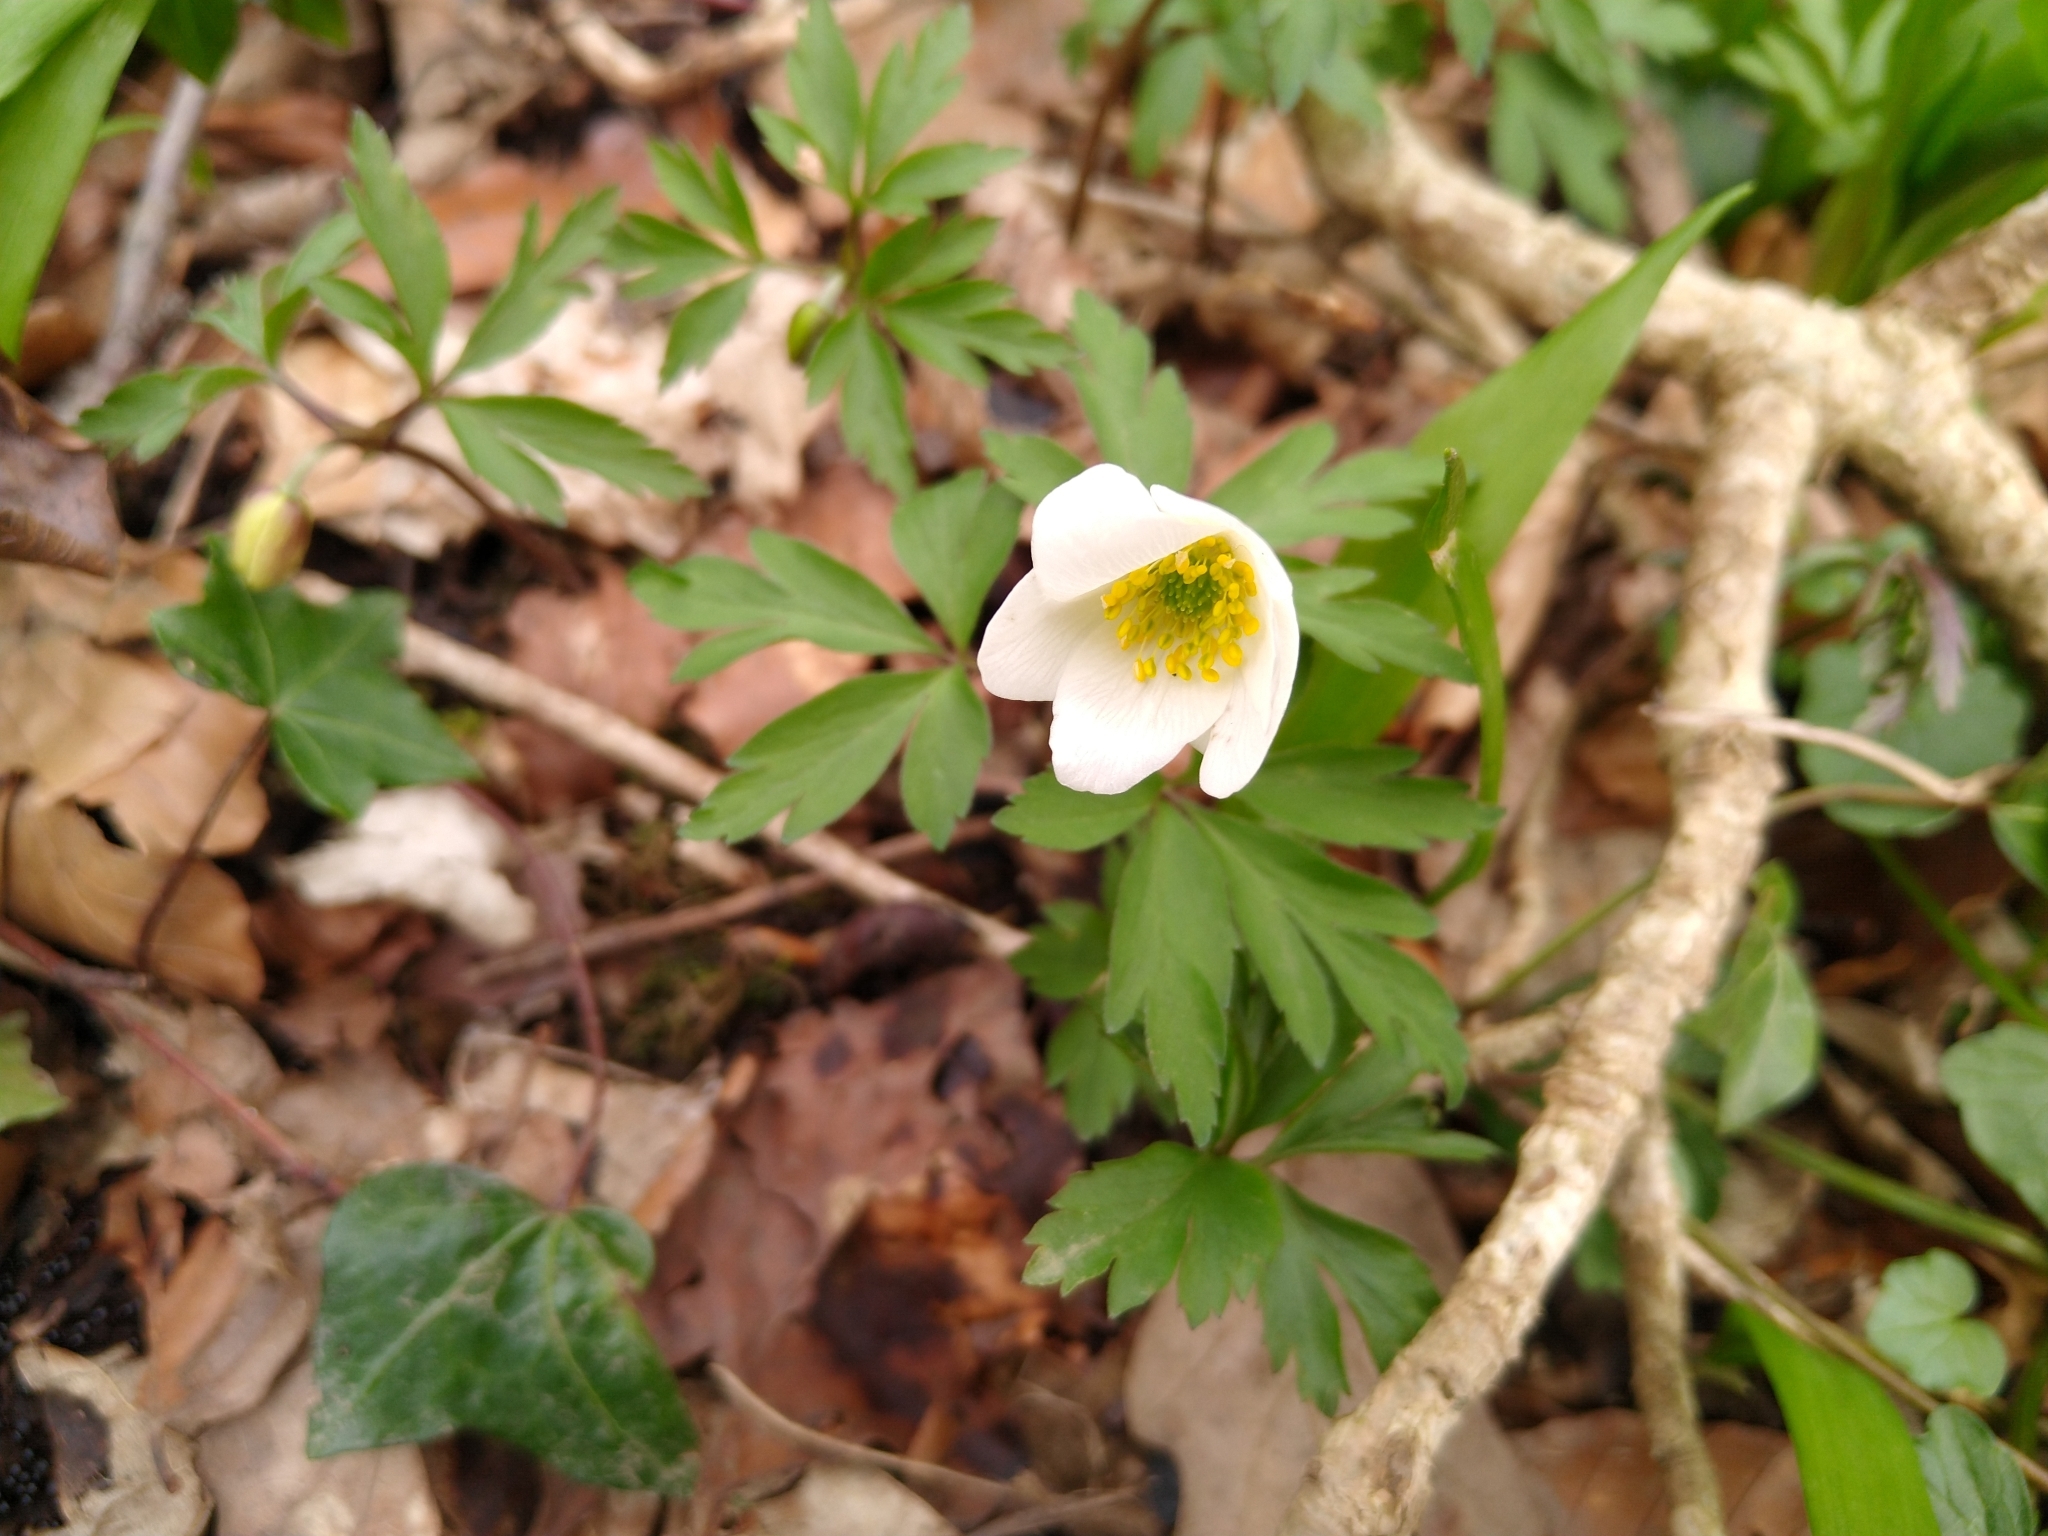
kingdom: Plantae
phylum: Tracheophyta
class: Magnoliopsida
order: Ranunculales
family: Ranunculaceae
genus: Anemone
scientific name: Anemone nemorosa
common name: Wood anemone
